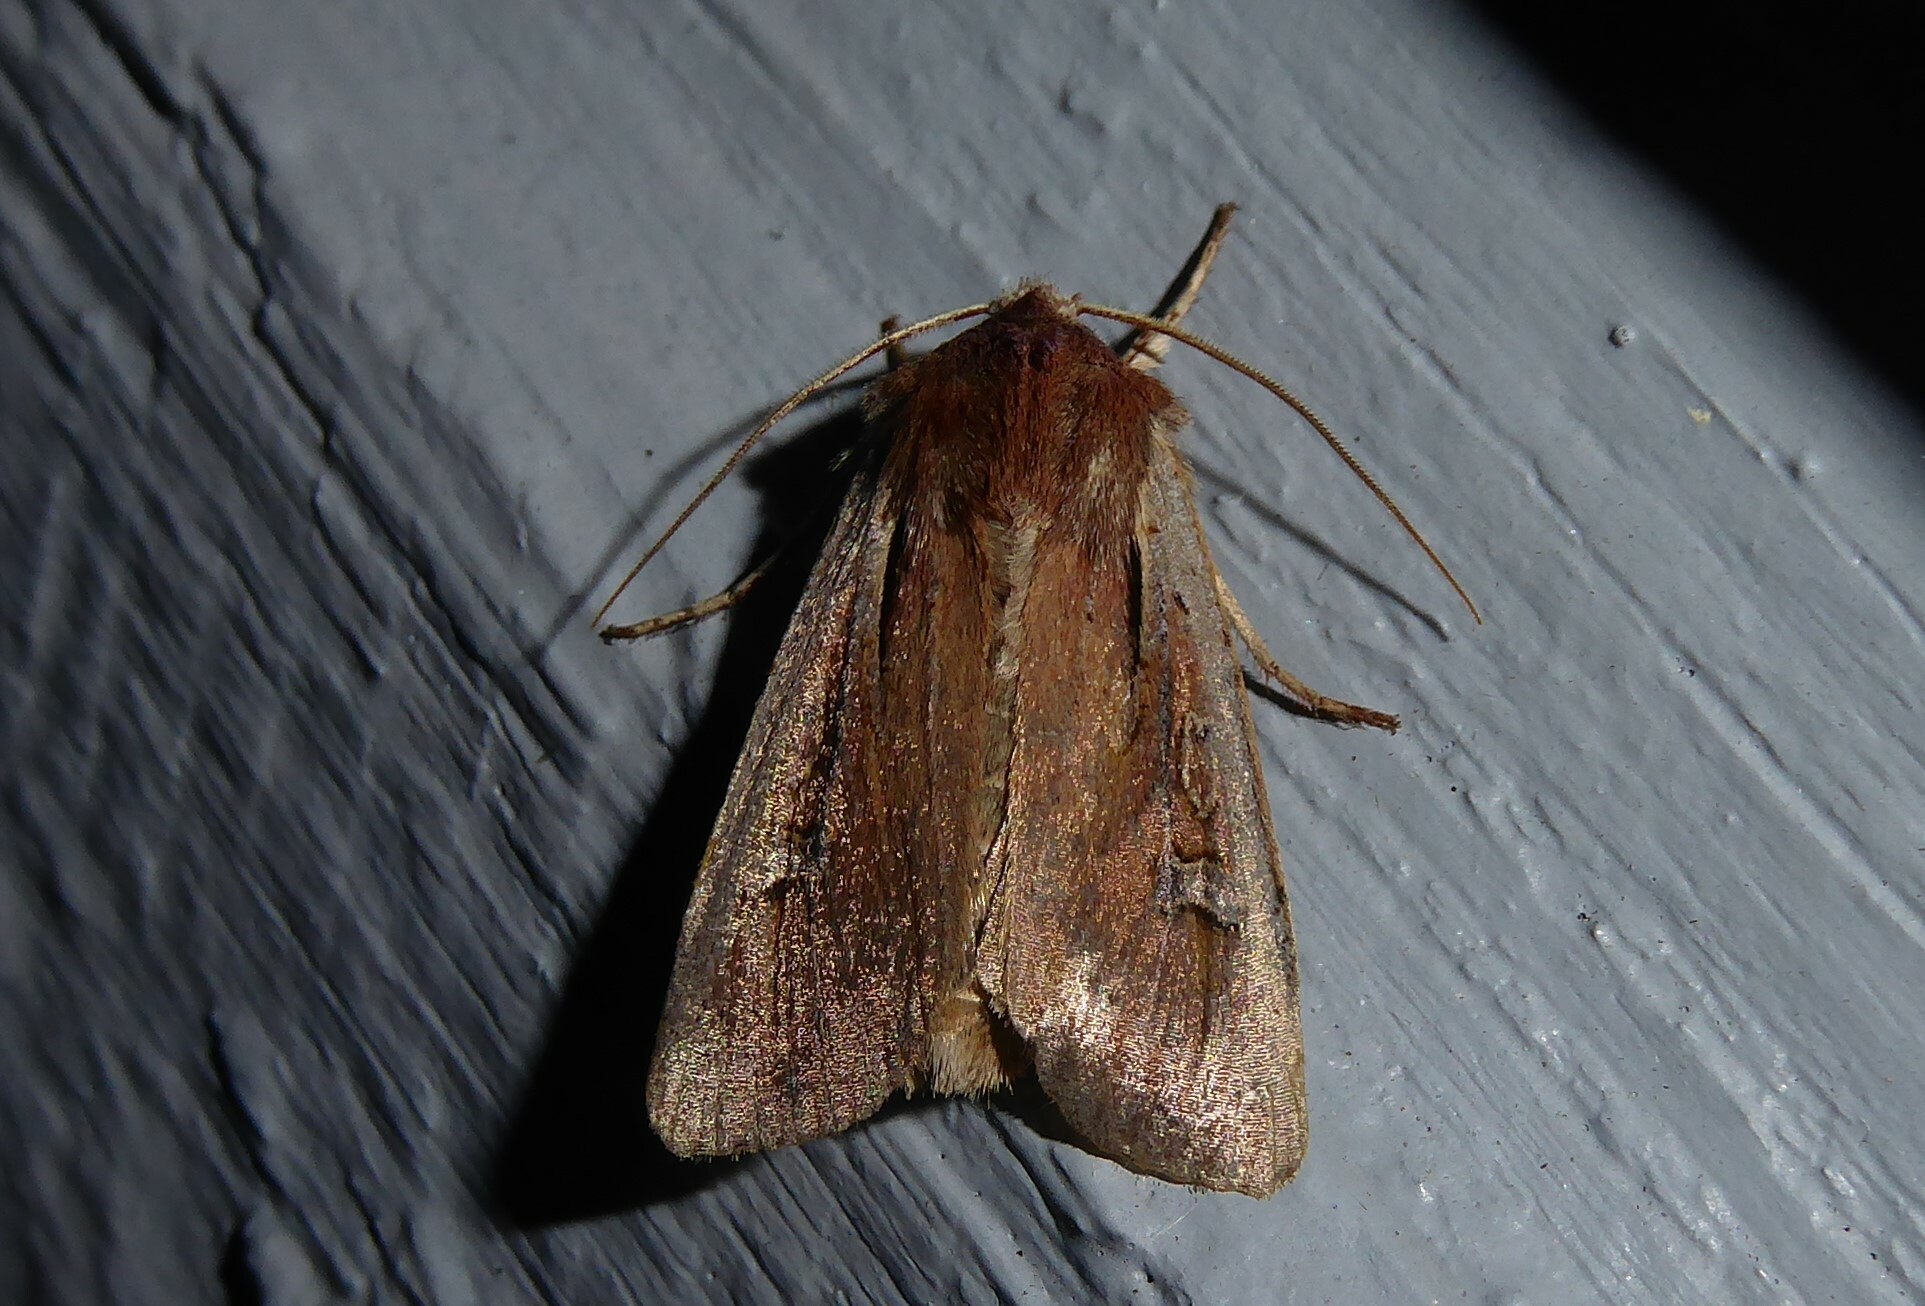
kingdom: Animalia
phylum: Arthropoda
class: Insecta
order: Lepidoptera
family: Noctuidae
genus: Ichneutica
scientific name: Ichneutica atristriga
